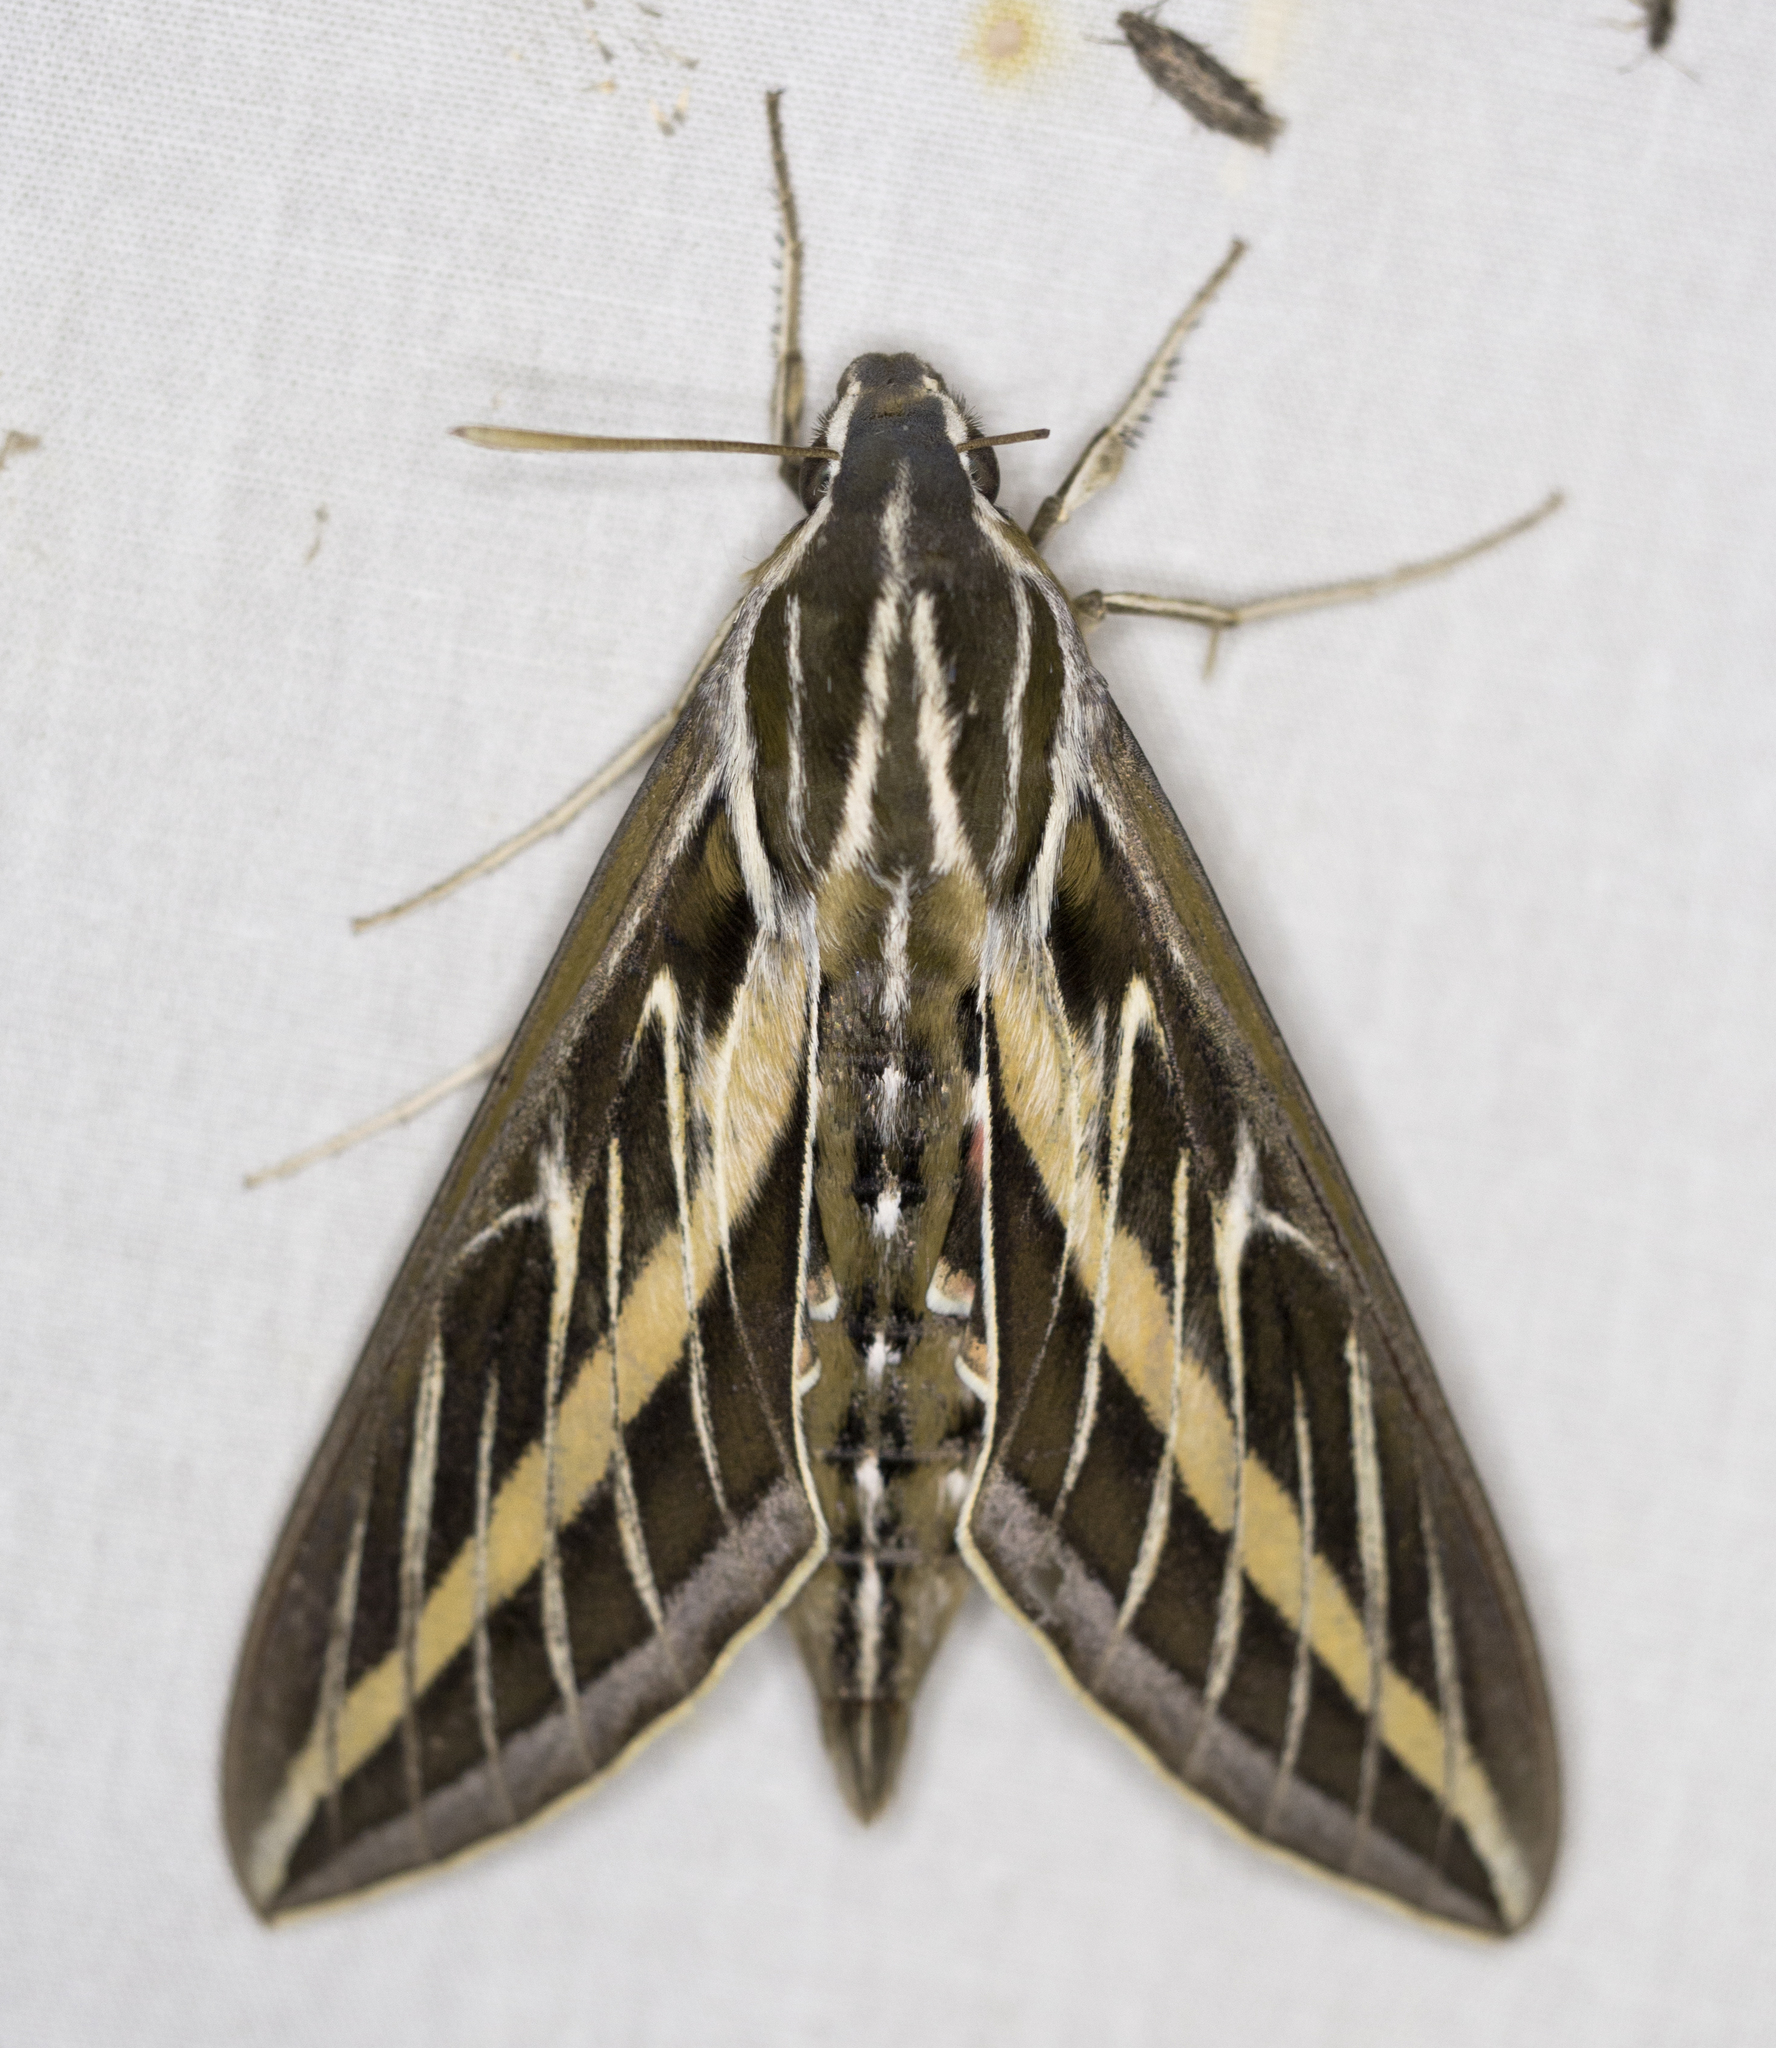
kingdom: Animalia
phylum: Arthropoda
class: Insecta
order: Lepidoptera
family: Sphingidae
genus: Hyles
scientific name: Hyles lineata
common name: White-lined sphinx
